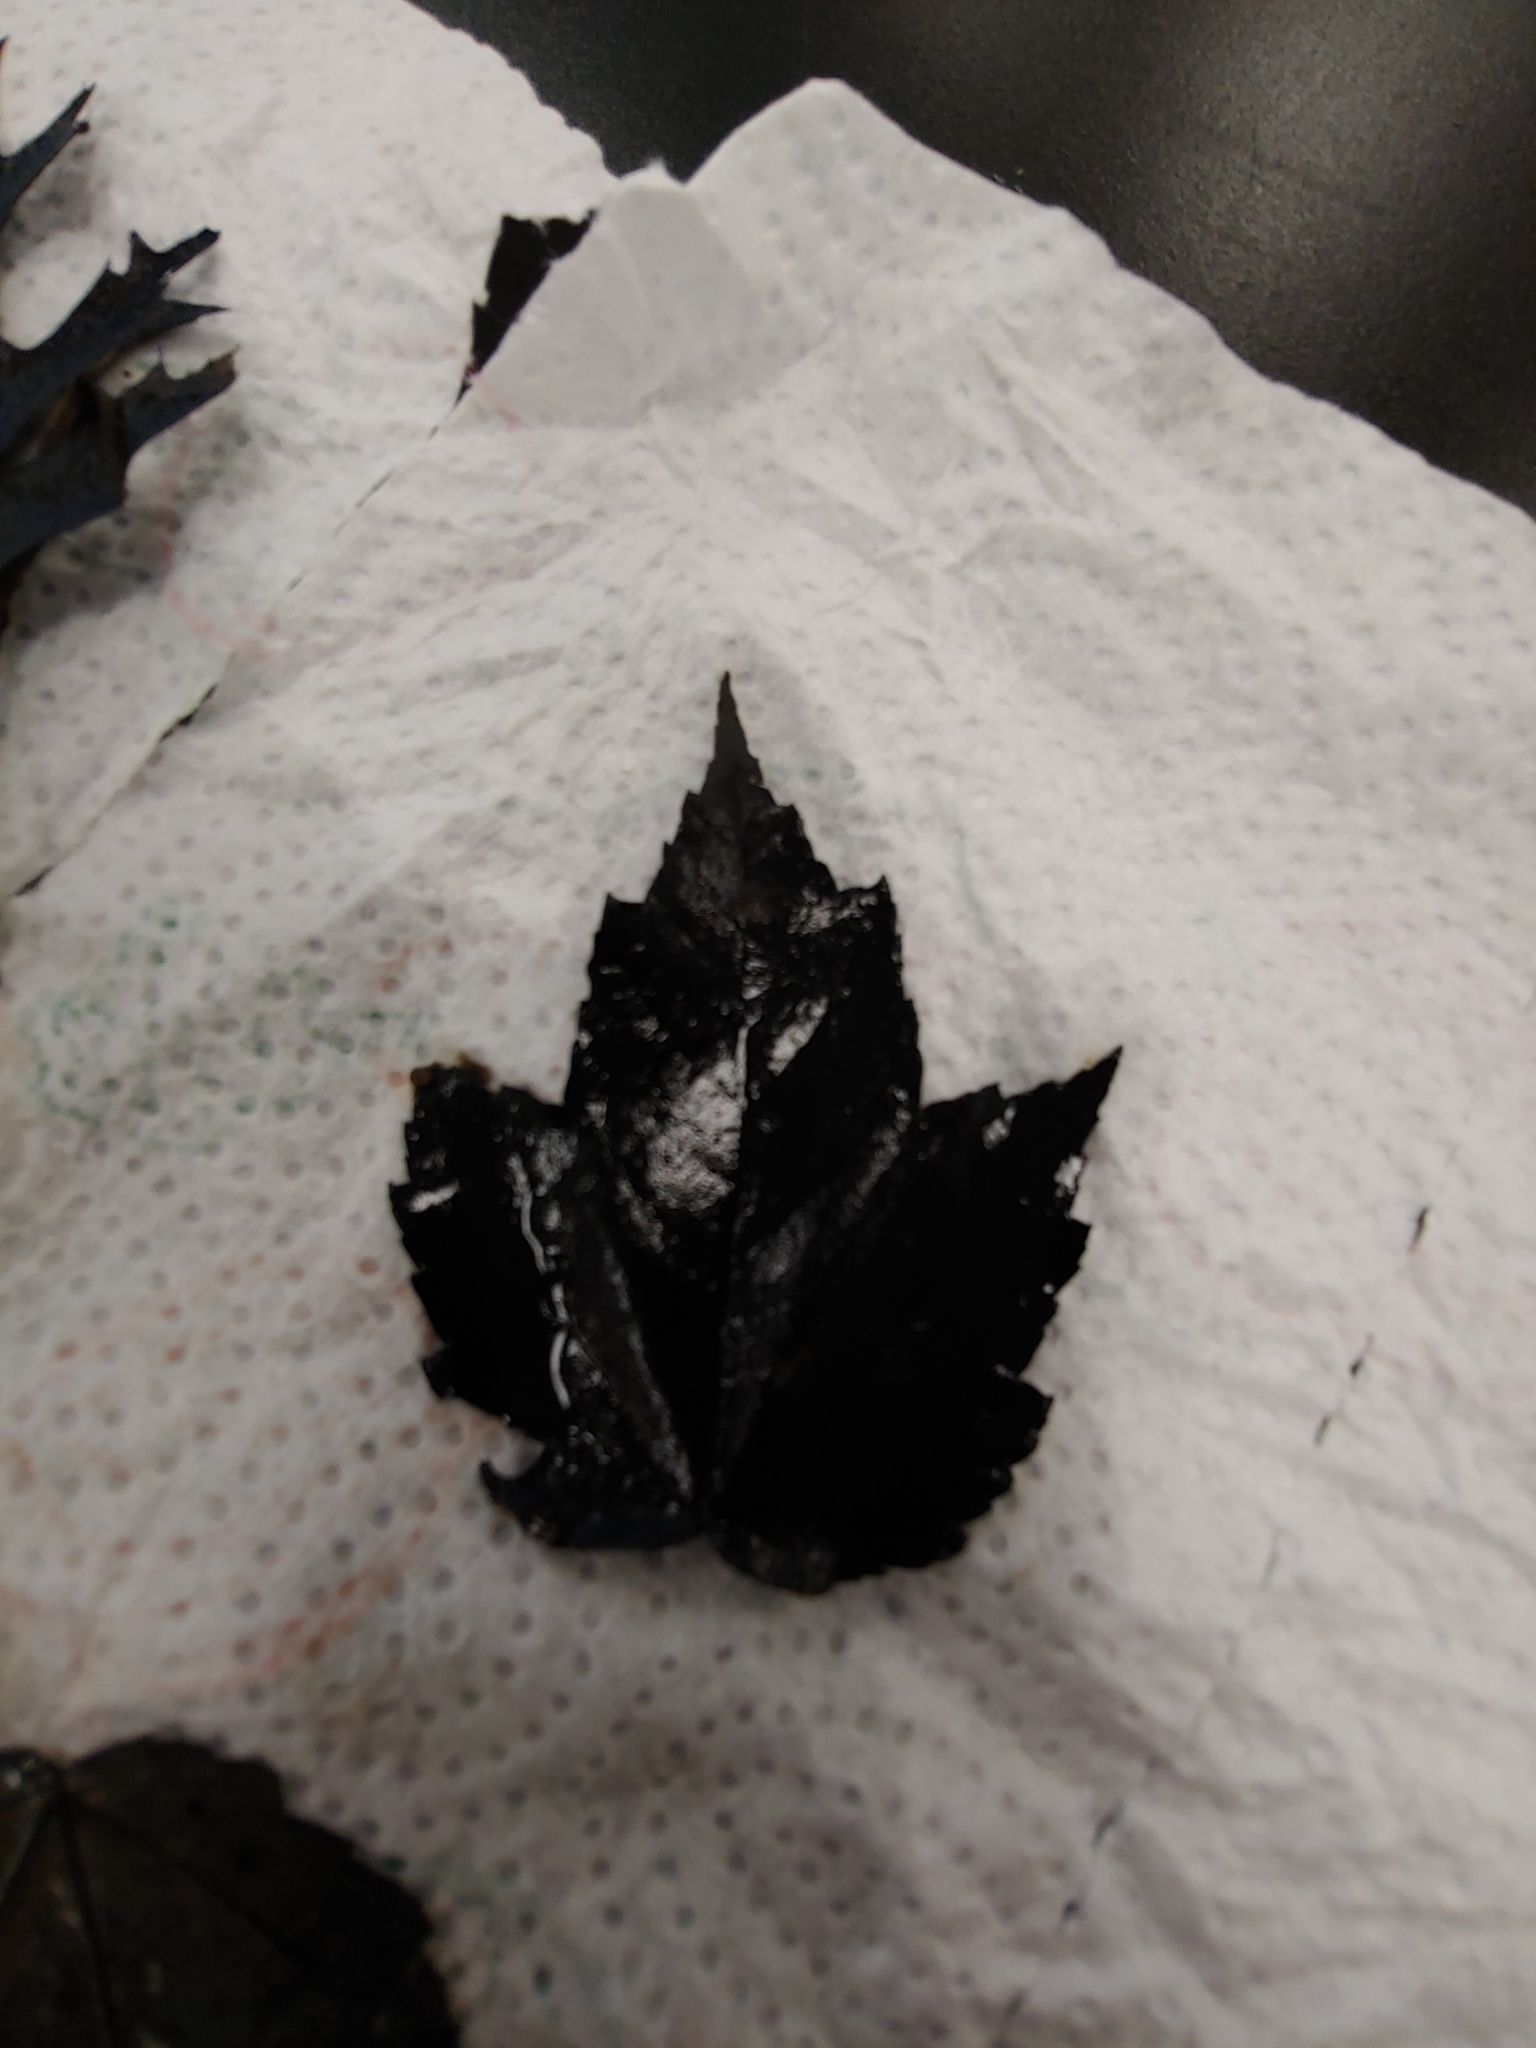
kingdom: Plantae
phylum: Tracheophyta
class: Magnoliopsida
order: Sapindales
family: Sapindaceae
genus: Acer
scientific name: Acer rubrum
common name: Red maple
